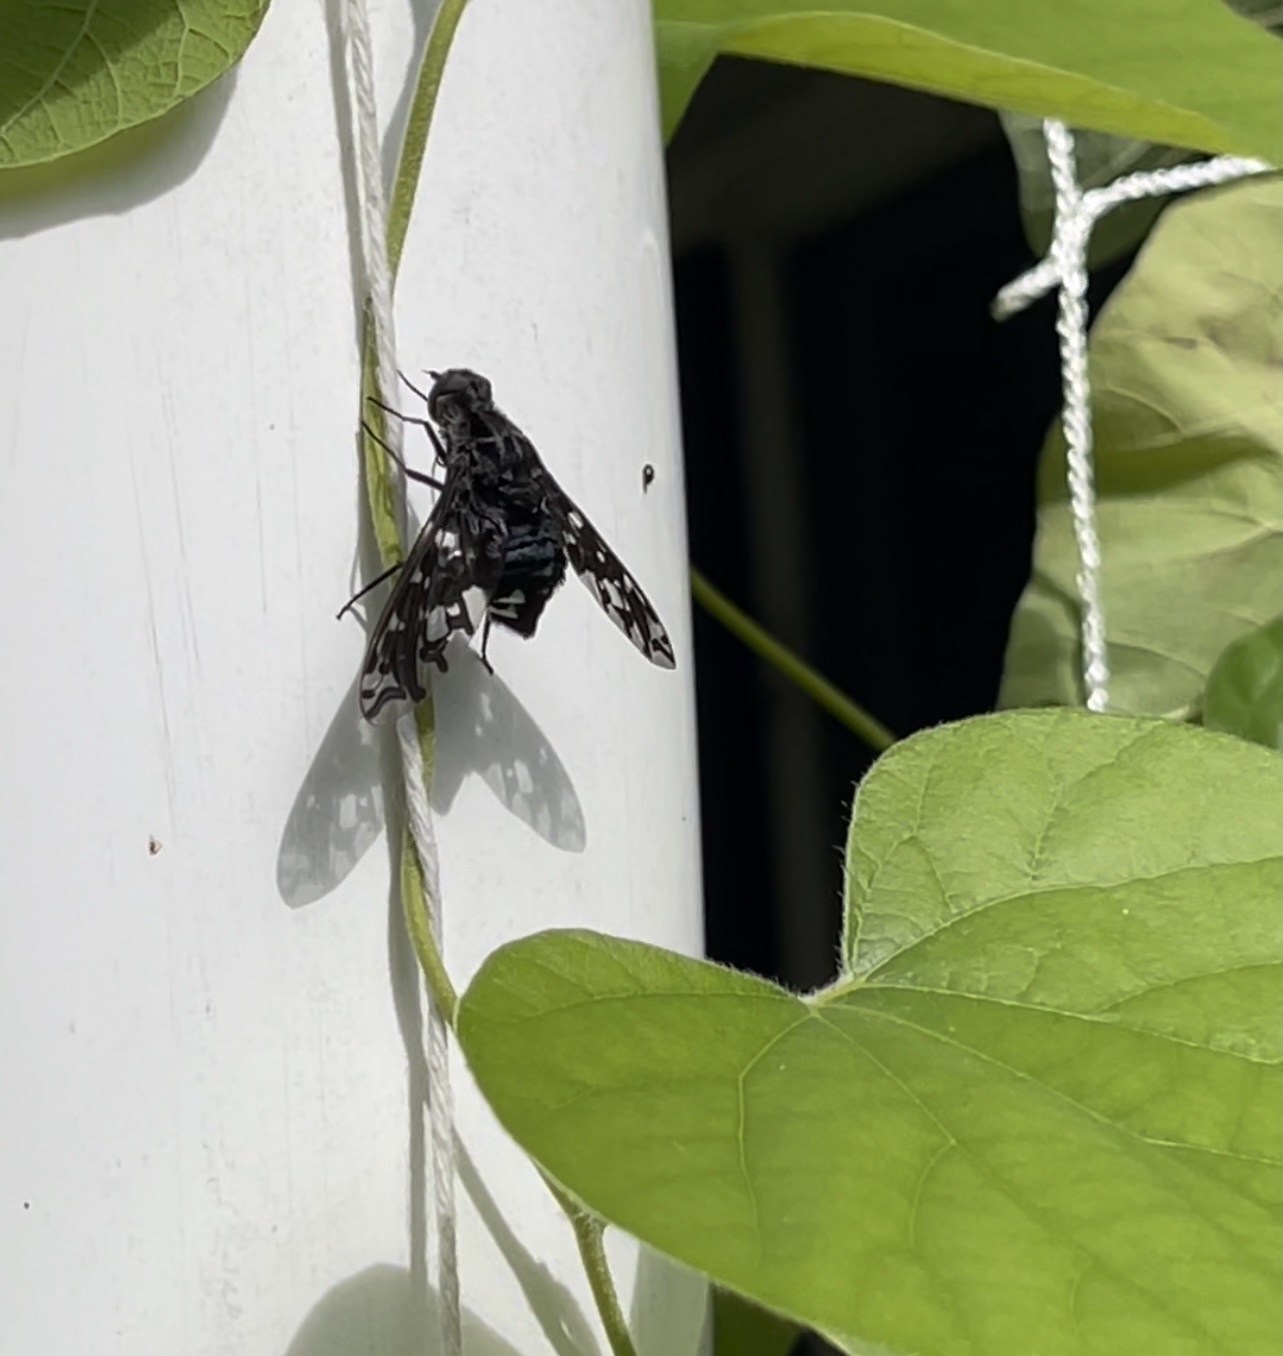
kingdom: Animalia
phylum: Arthropoda
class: Insecta
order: Diptera
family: Bombyliidae
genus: Xenox
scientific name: Xenox tigrinus
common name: Tiger bee fly
